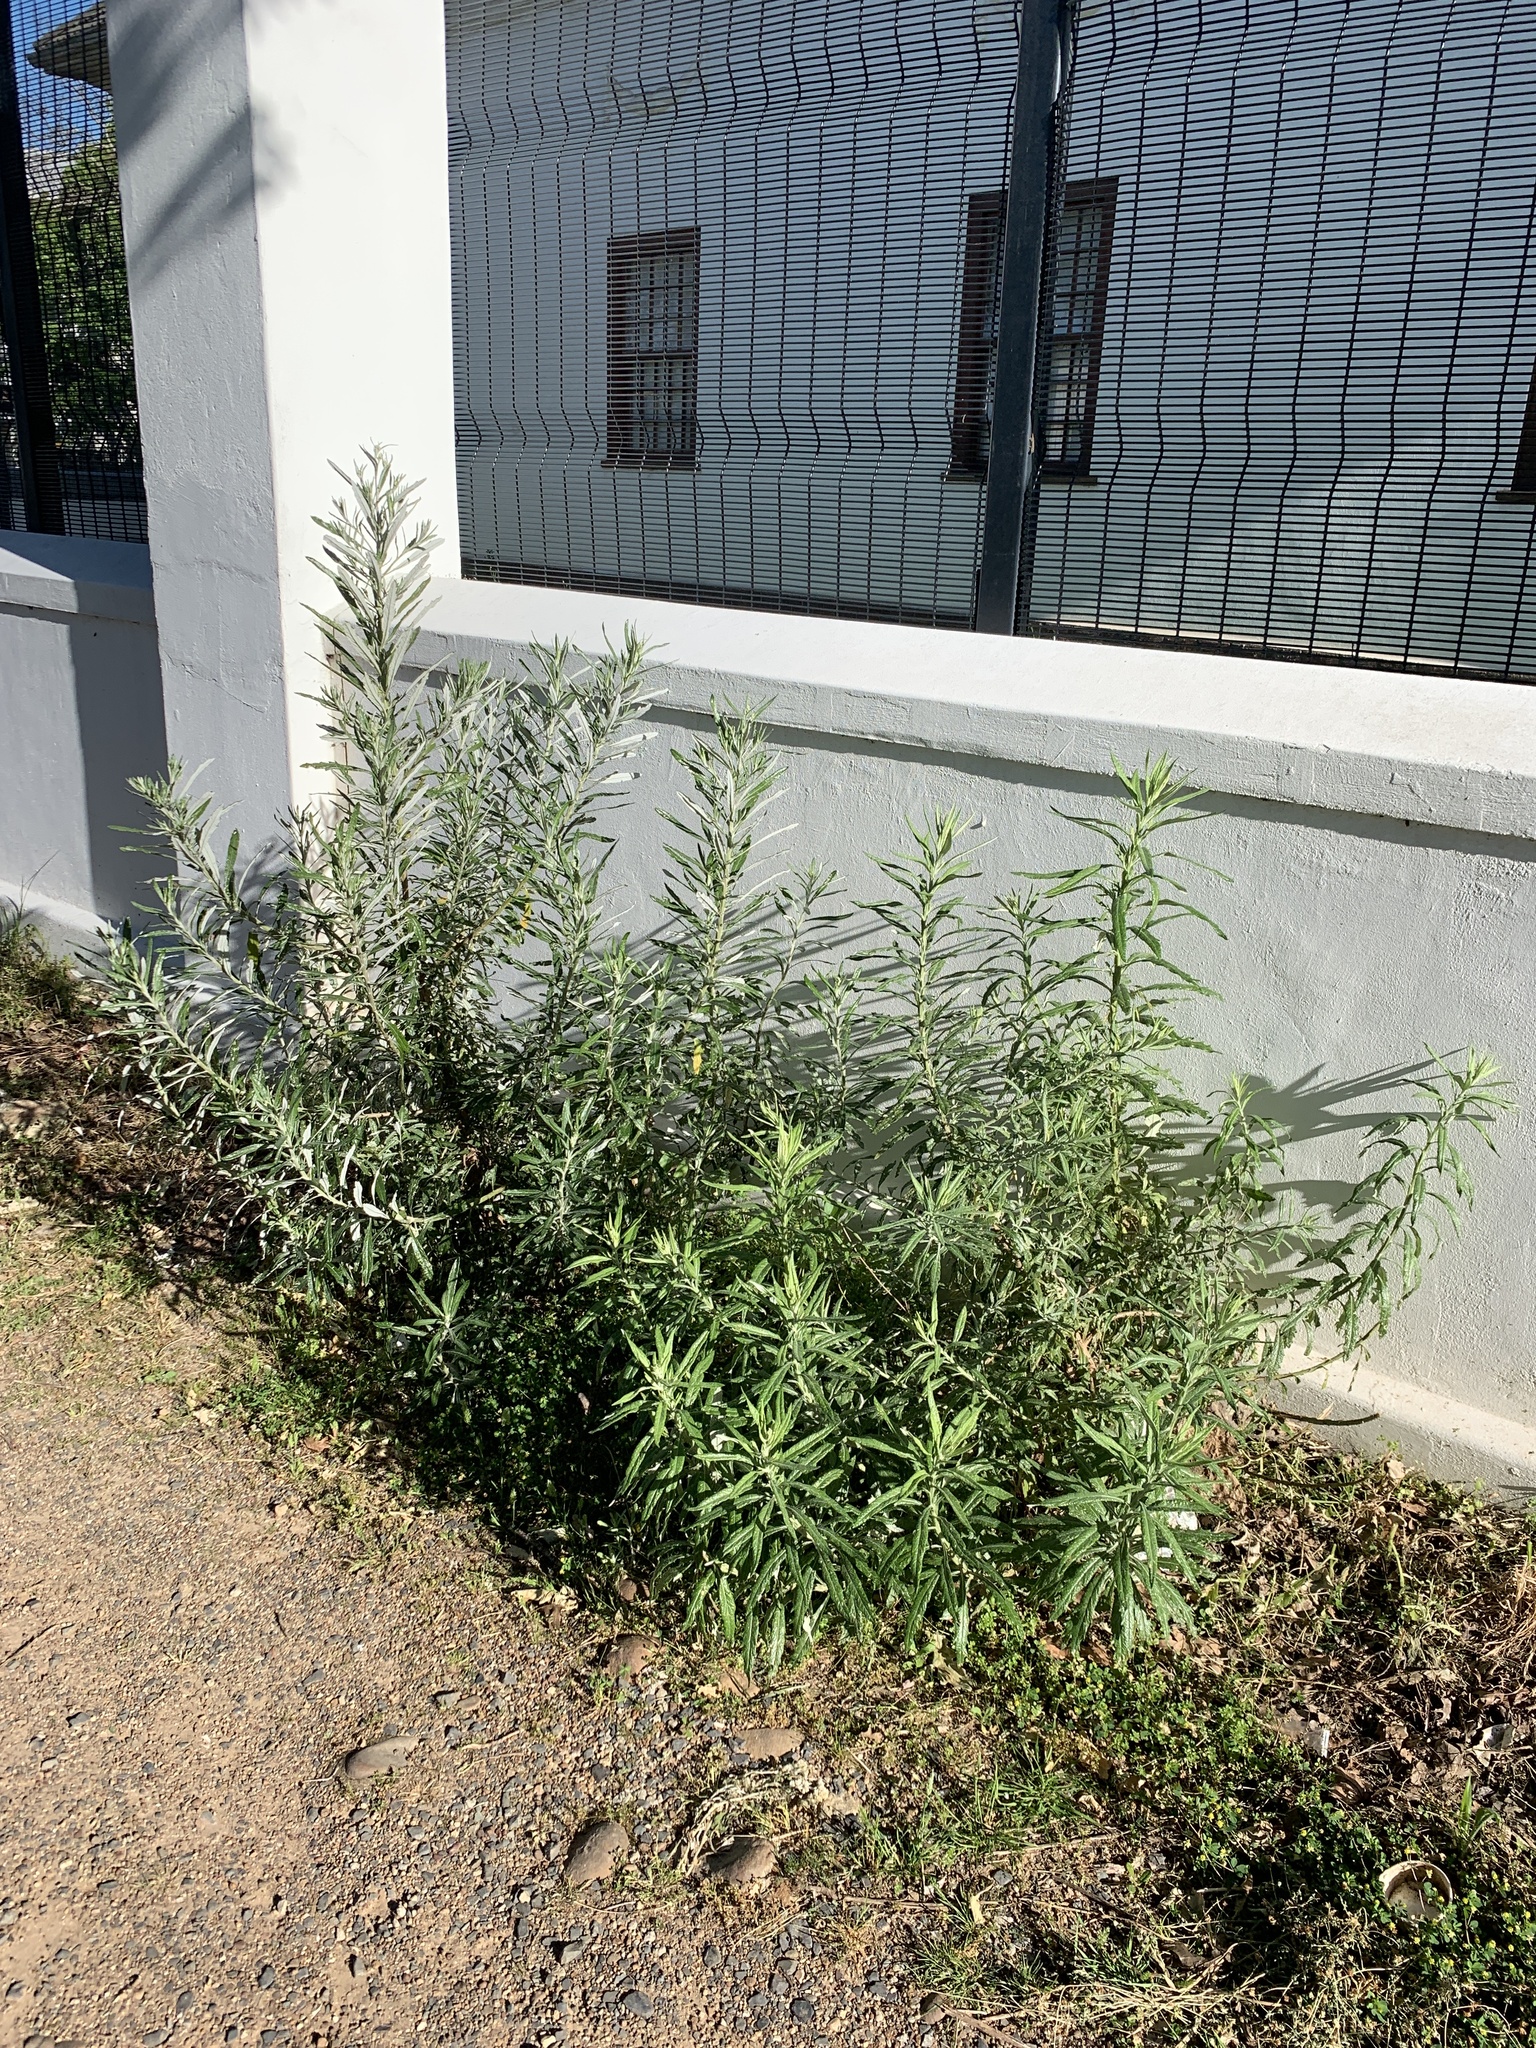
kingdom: Plantae
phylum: Tracheophyta
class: Magnoliopsida
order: Asterales
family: Asteraceae
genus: Senecio
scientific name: Senecio pterophorus
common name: Shoddy ragwort
